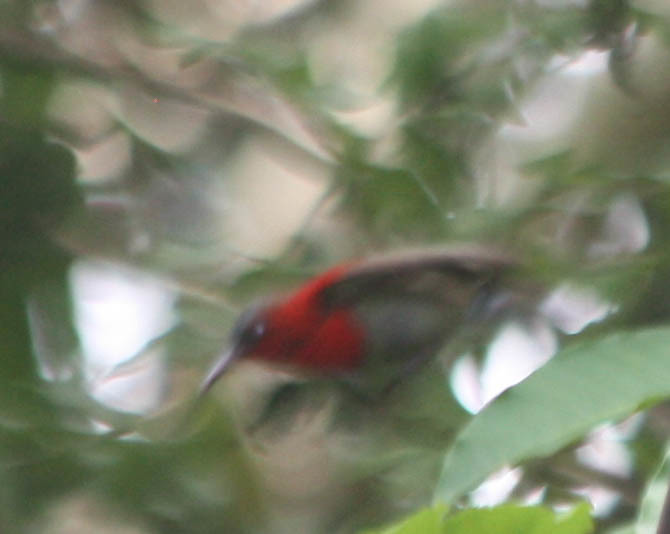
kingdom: Animalia
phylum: Chordata
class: Aves
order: Passeriformes
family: Nectariniidae
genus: Aethopyga
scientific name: Aethopyga siparaja
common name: Crimson sunbird
